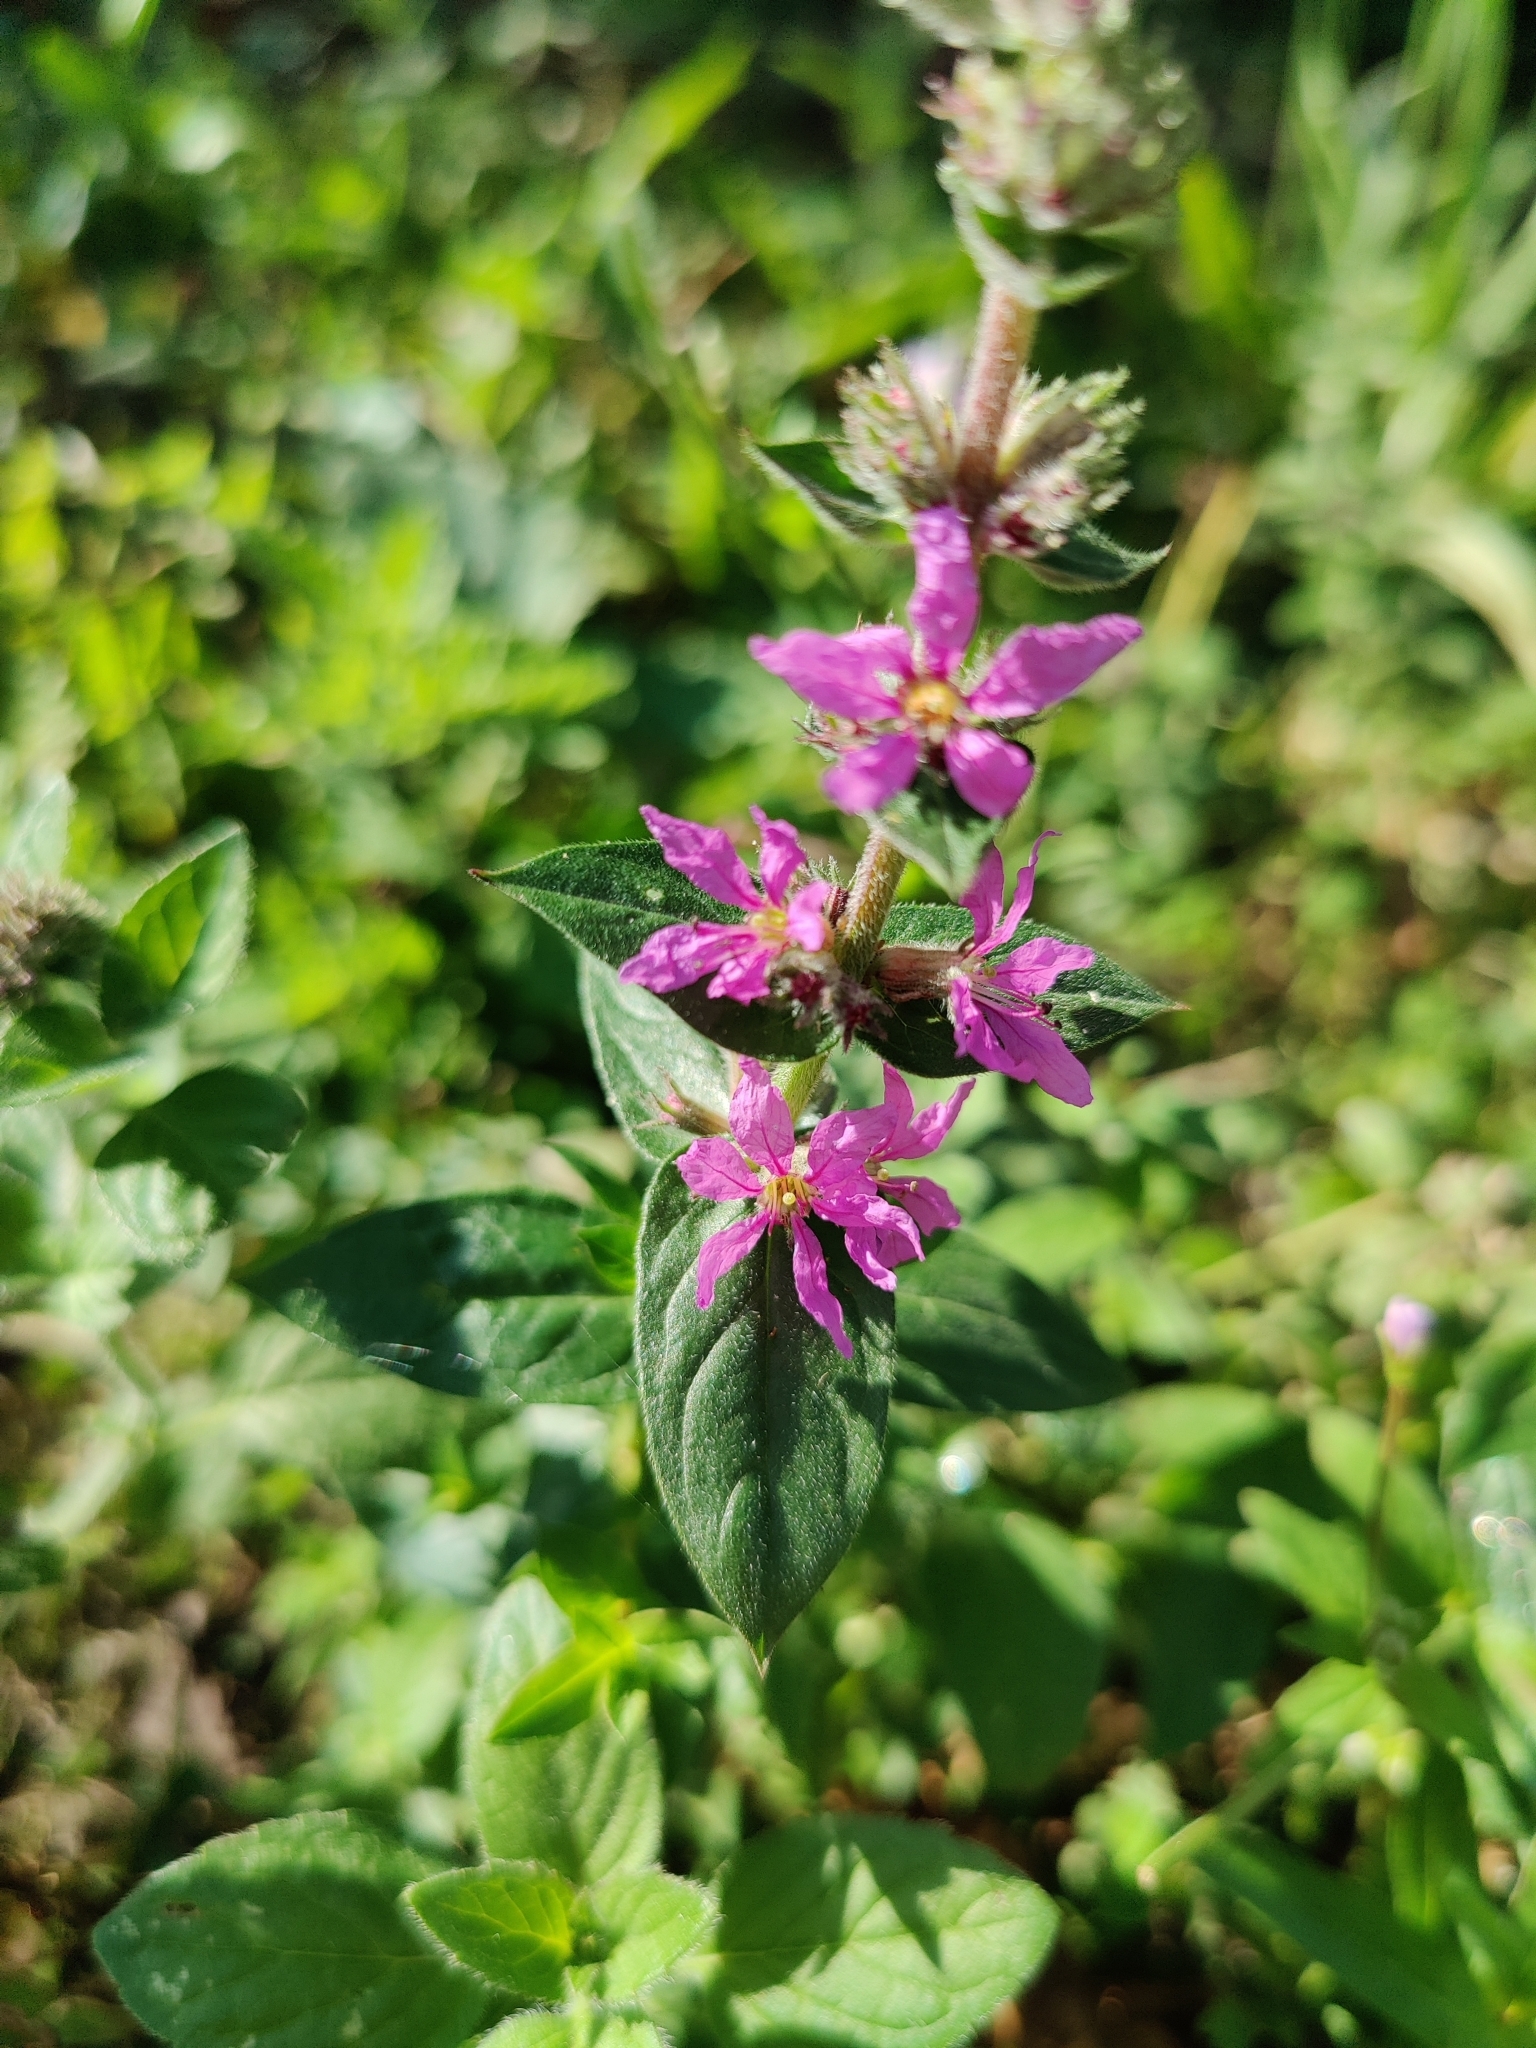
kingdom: Plantae
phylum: Tracheophyta
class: Magnoliopsida
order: Myrtales
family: Lythraceae
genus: Lythrum
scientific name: Lythrum salicaria
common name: Purple loosestrife
